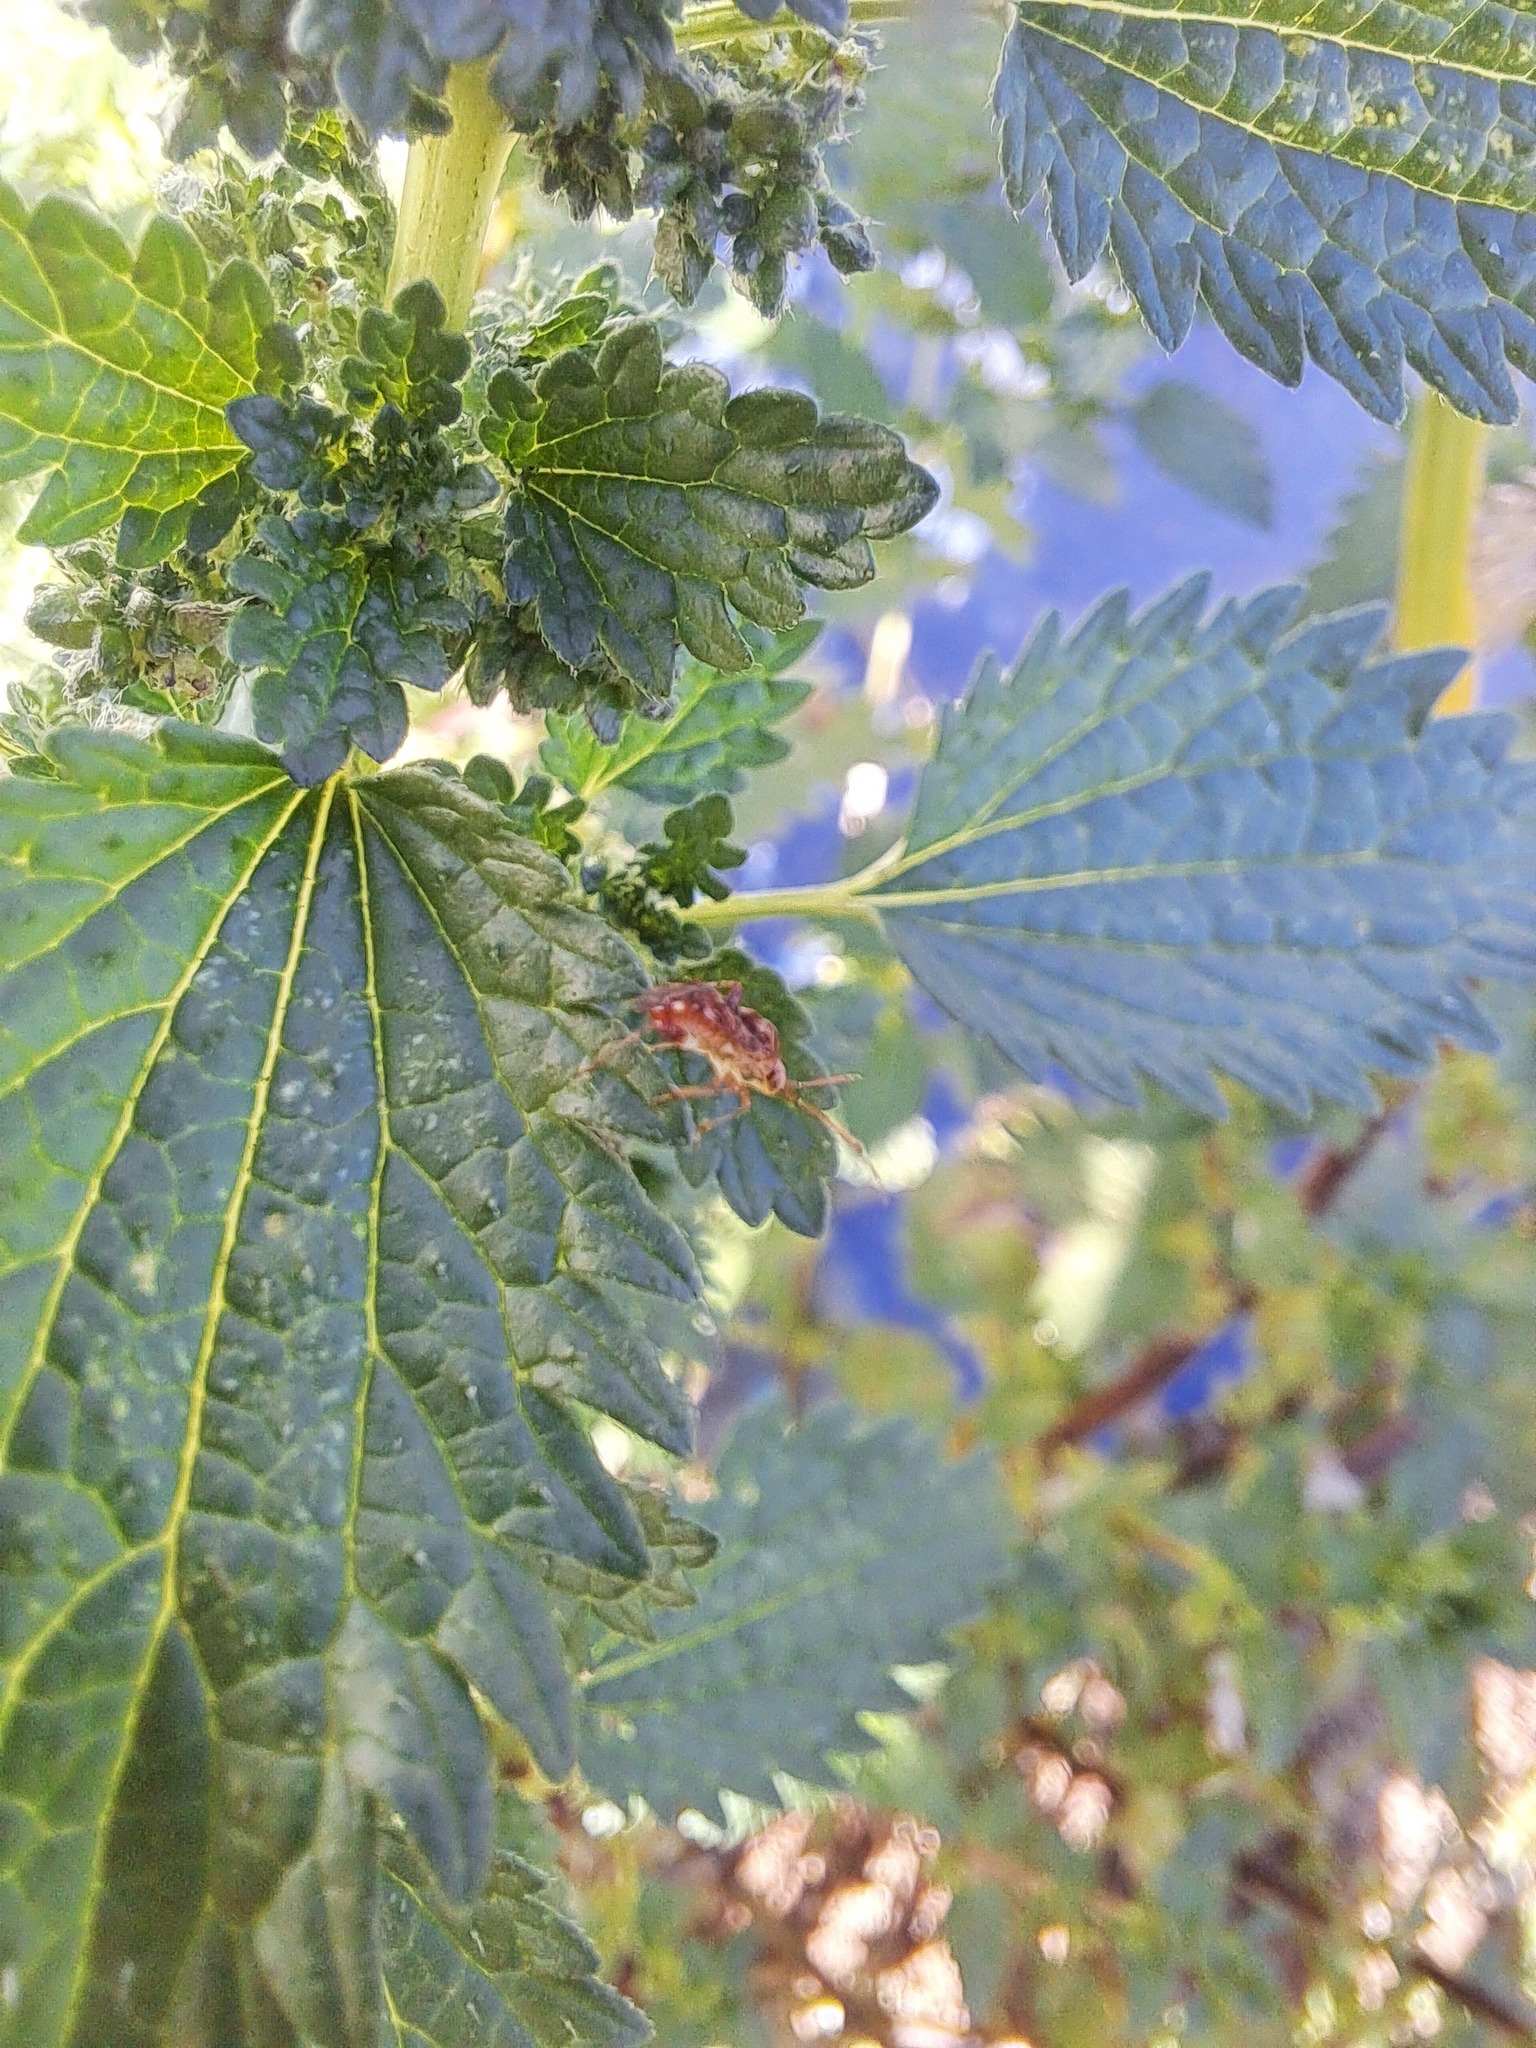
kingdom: Animalia
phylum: Arthropoda
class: Insecta
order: Hemiptera
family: Miridae
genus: Sidnia
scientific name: Sidnia kinbergi
